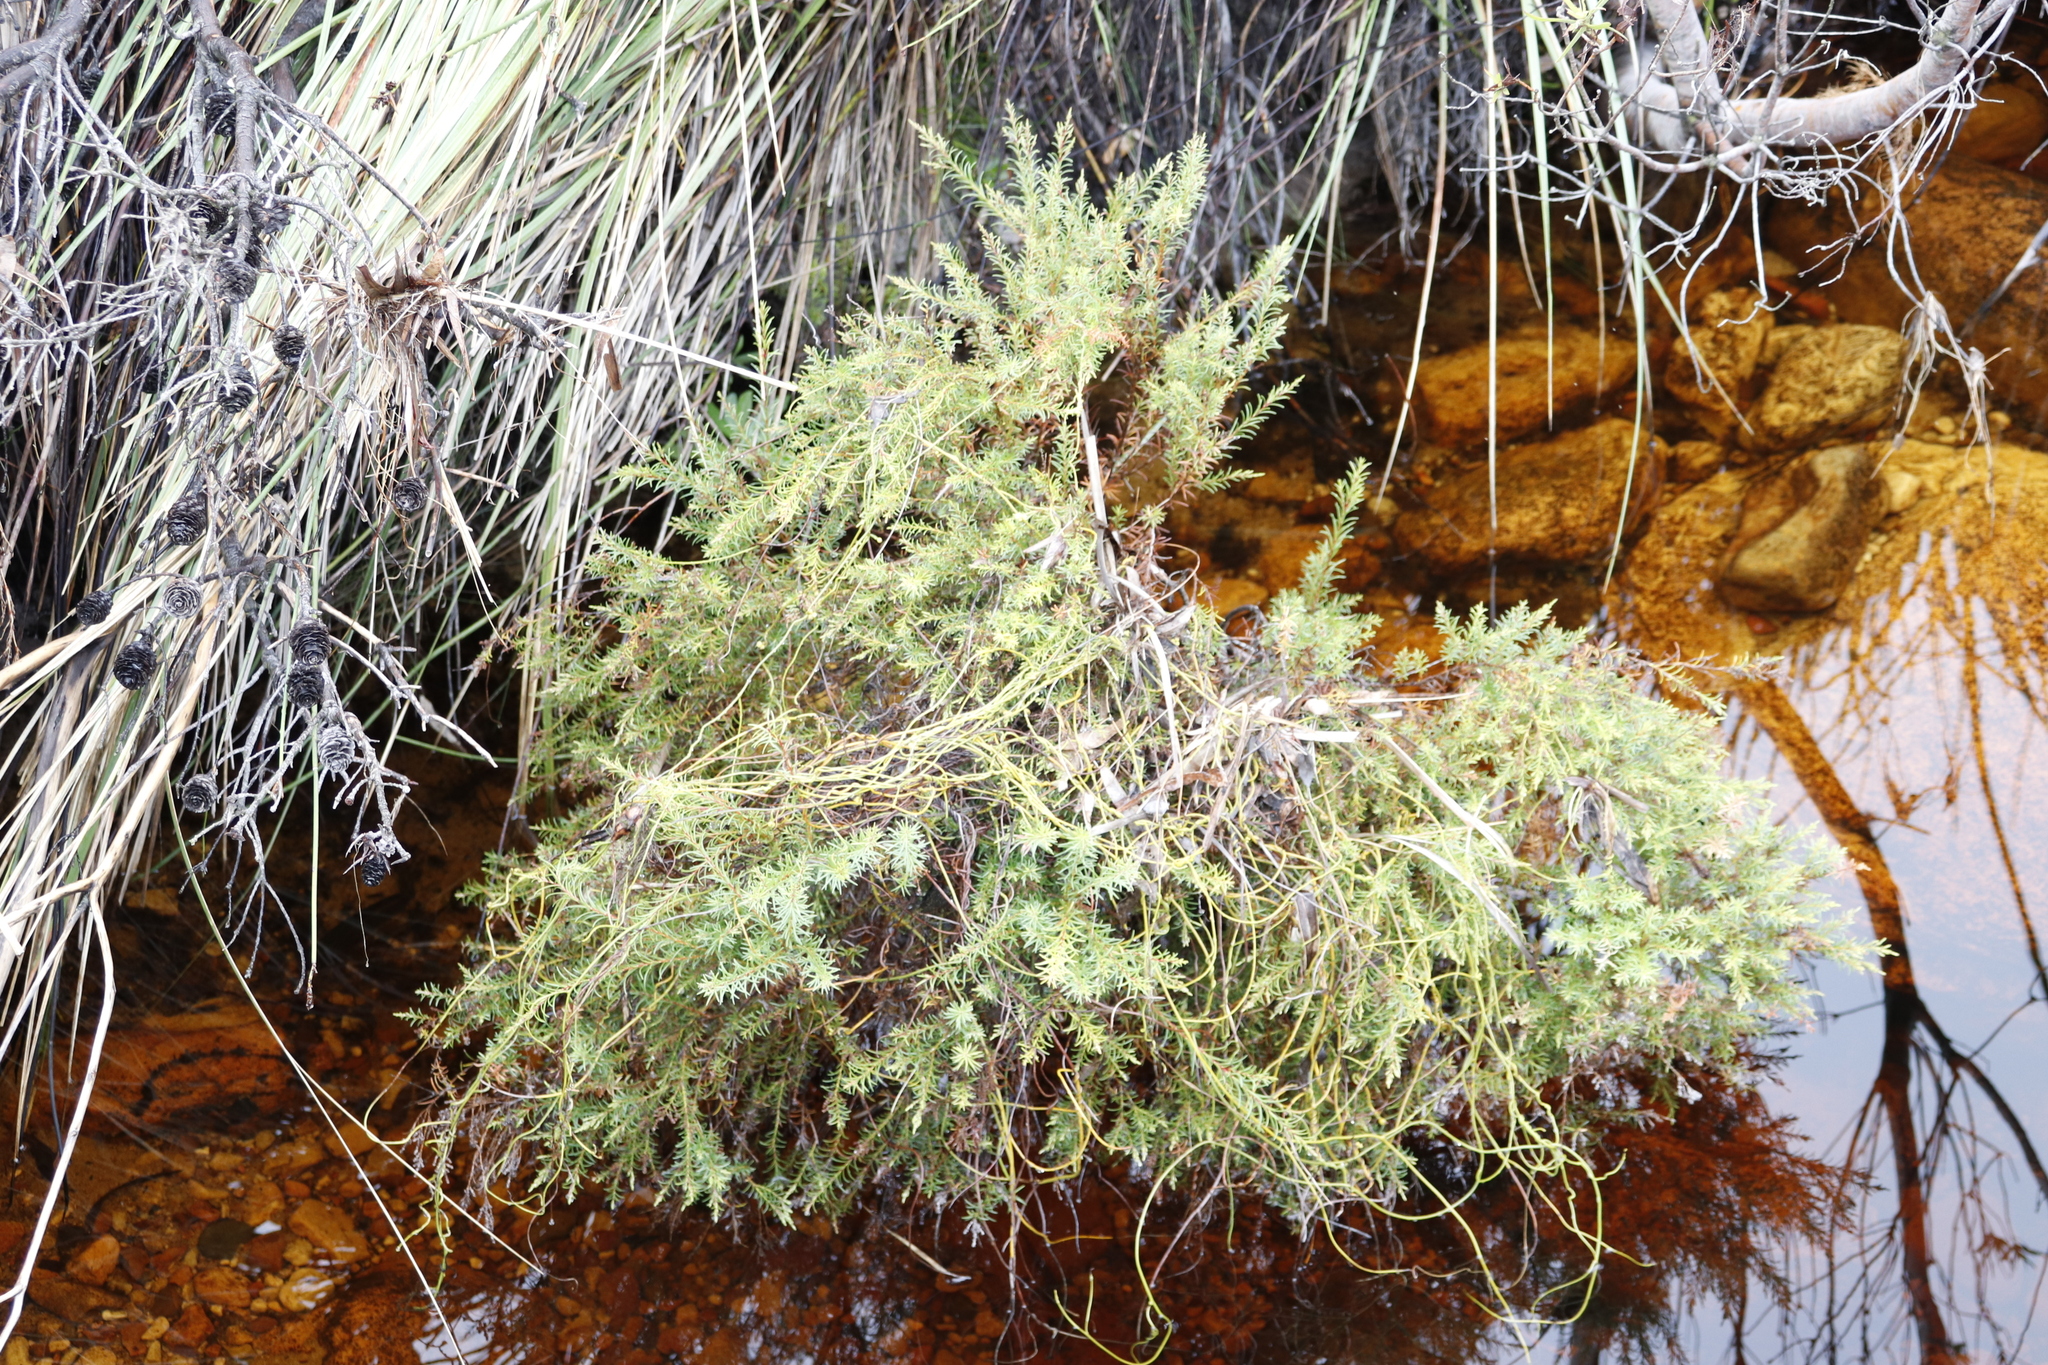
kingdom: Plantae
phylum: Tracheophyta
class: Magnoliopsida
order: Bruniales
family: Bruniaceae
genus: Brunia
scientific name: Brunia africana
